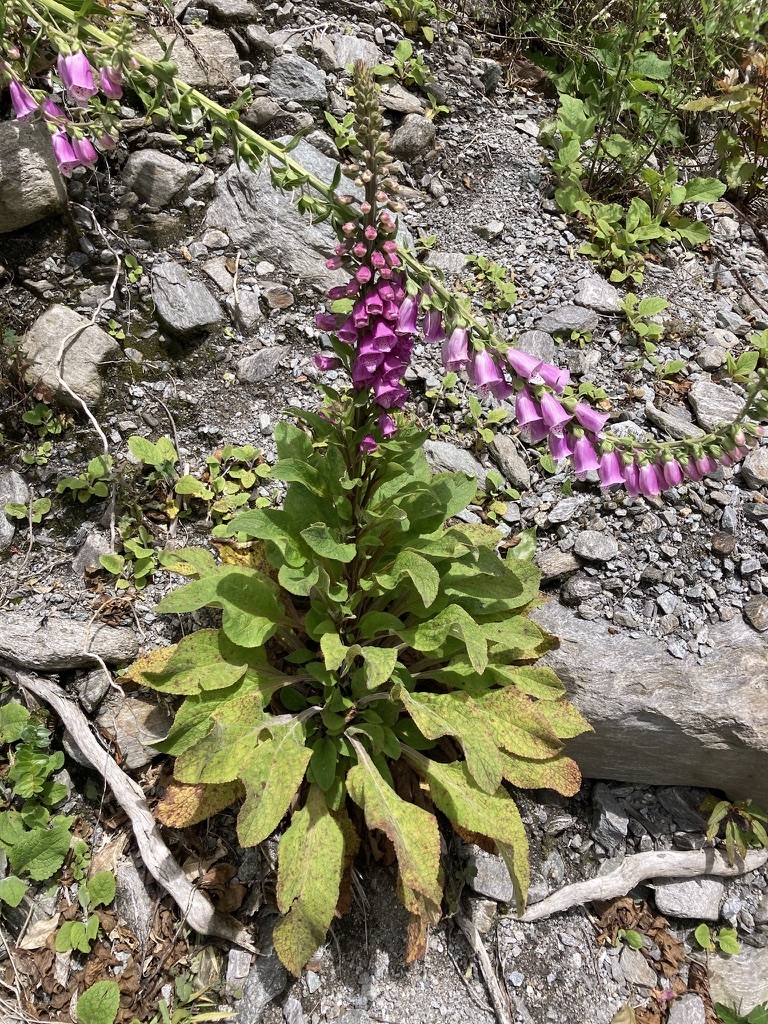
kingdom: Plantae
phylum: Tracheophyta
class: Magnoliopsida
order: Lamiales
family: Plantaginaceae
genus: Digitalis
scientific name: Digitalis purpurea
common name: Foxglove
